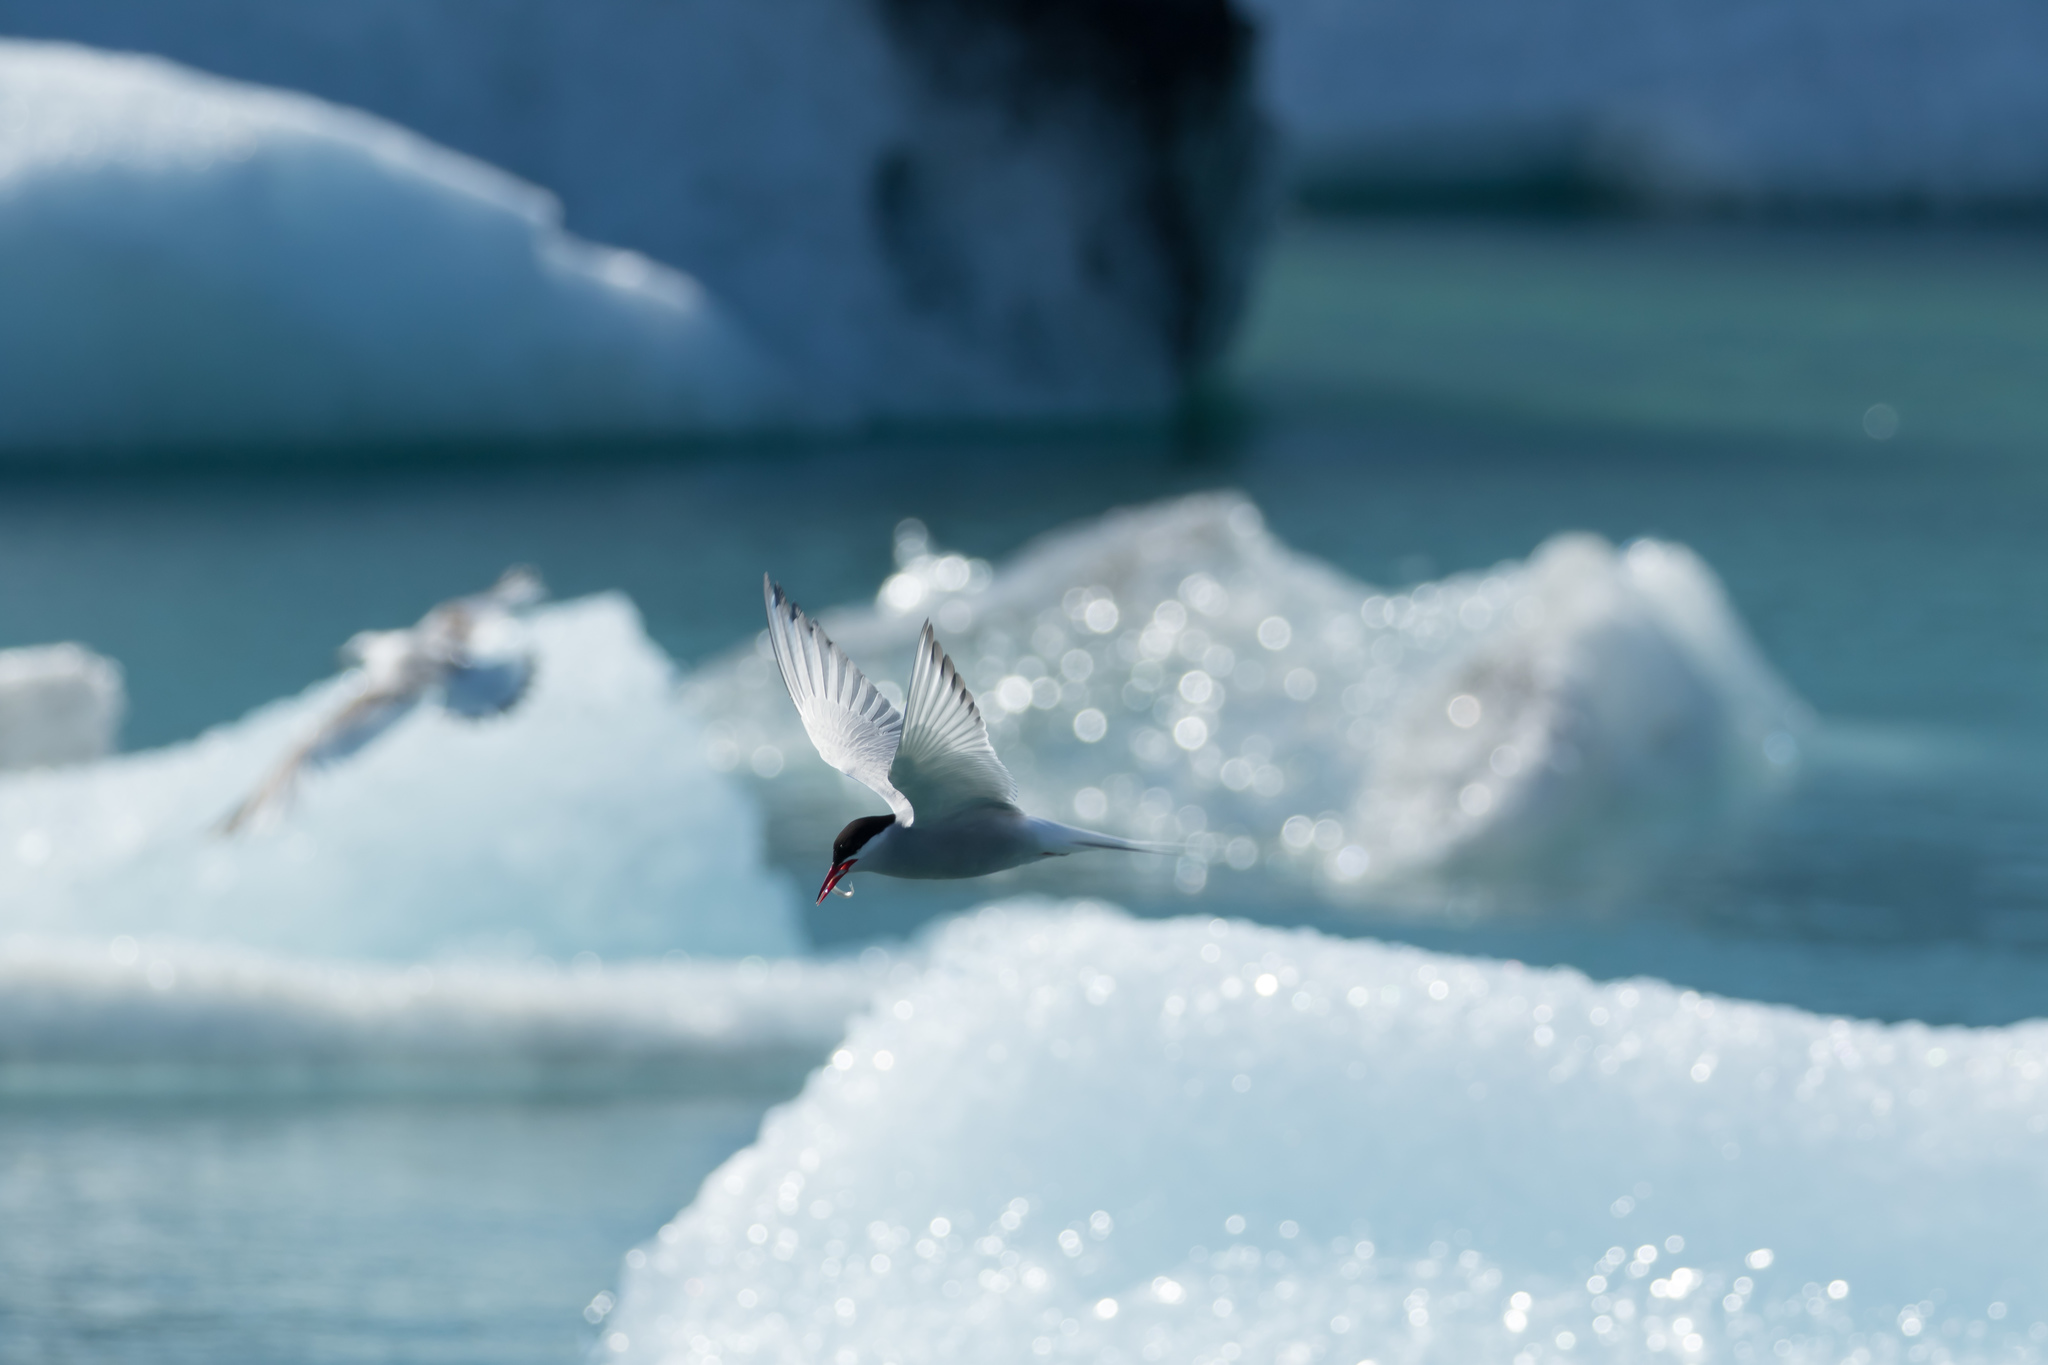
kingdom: Animalia
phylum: Chordata
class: Aves
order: Charadriiformes
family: Laridae
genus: Sterna
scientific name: Sterna paradisaea
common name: Arctic tern
